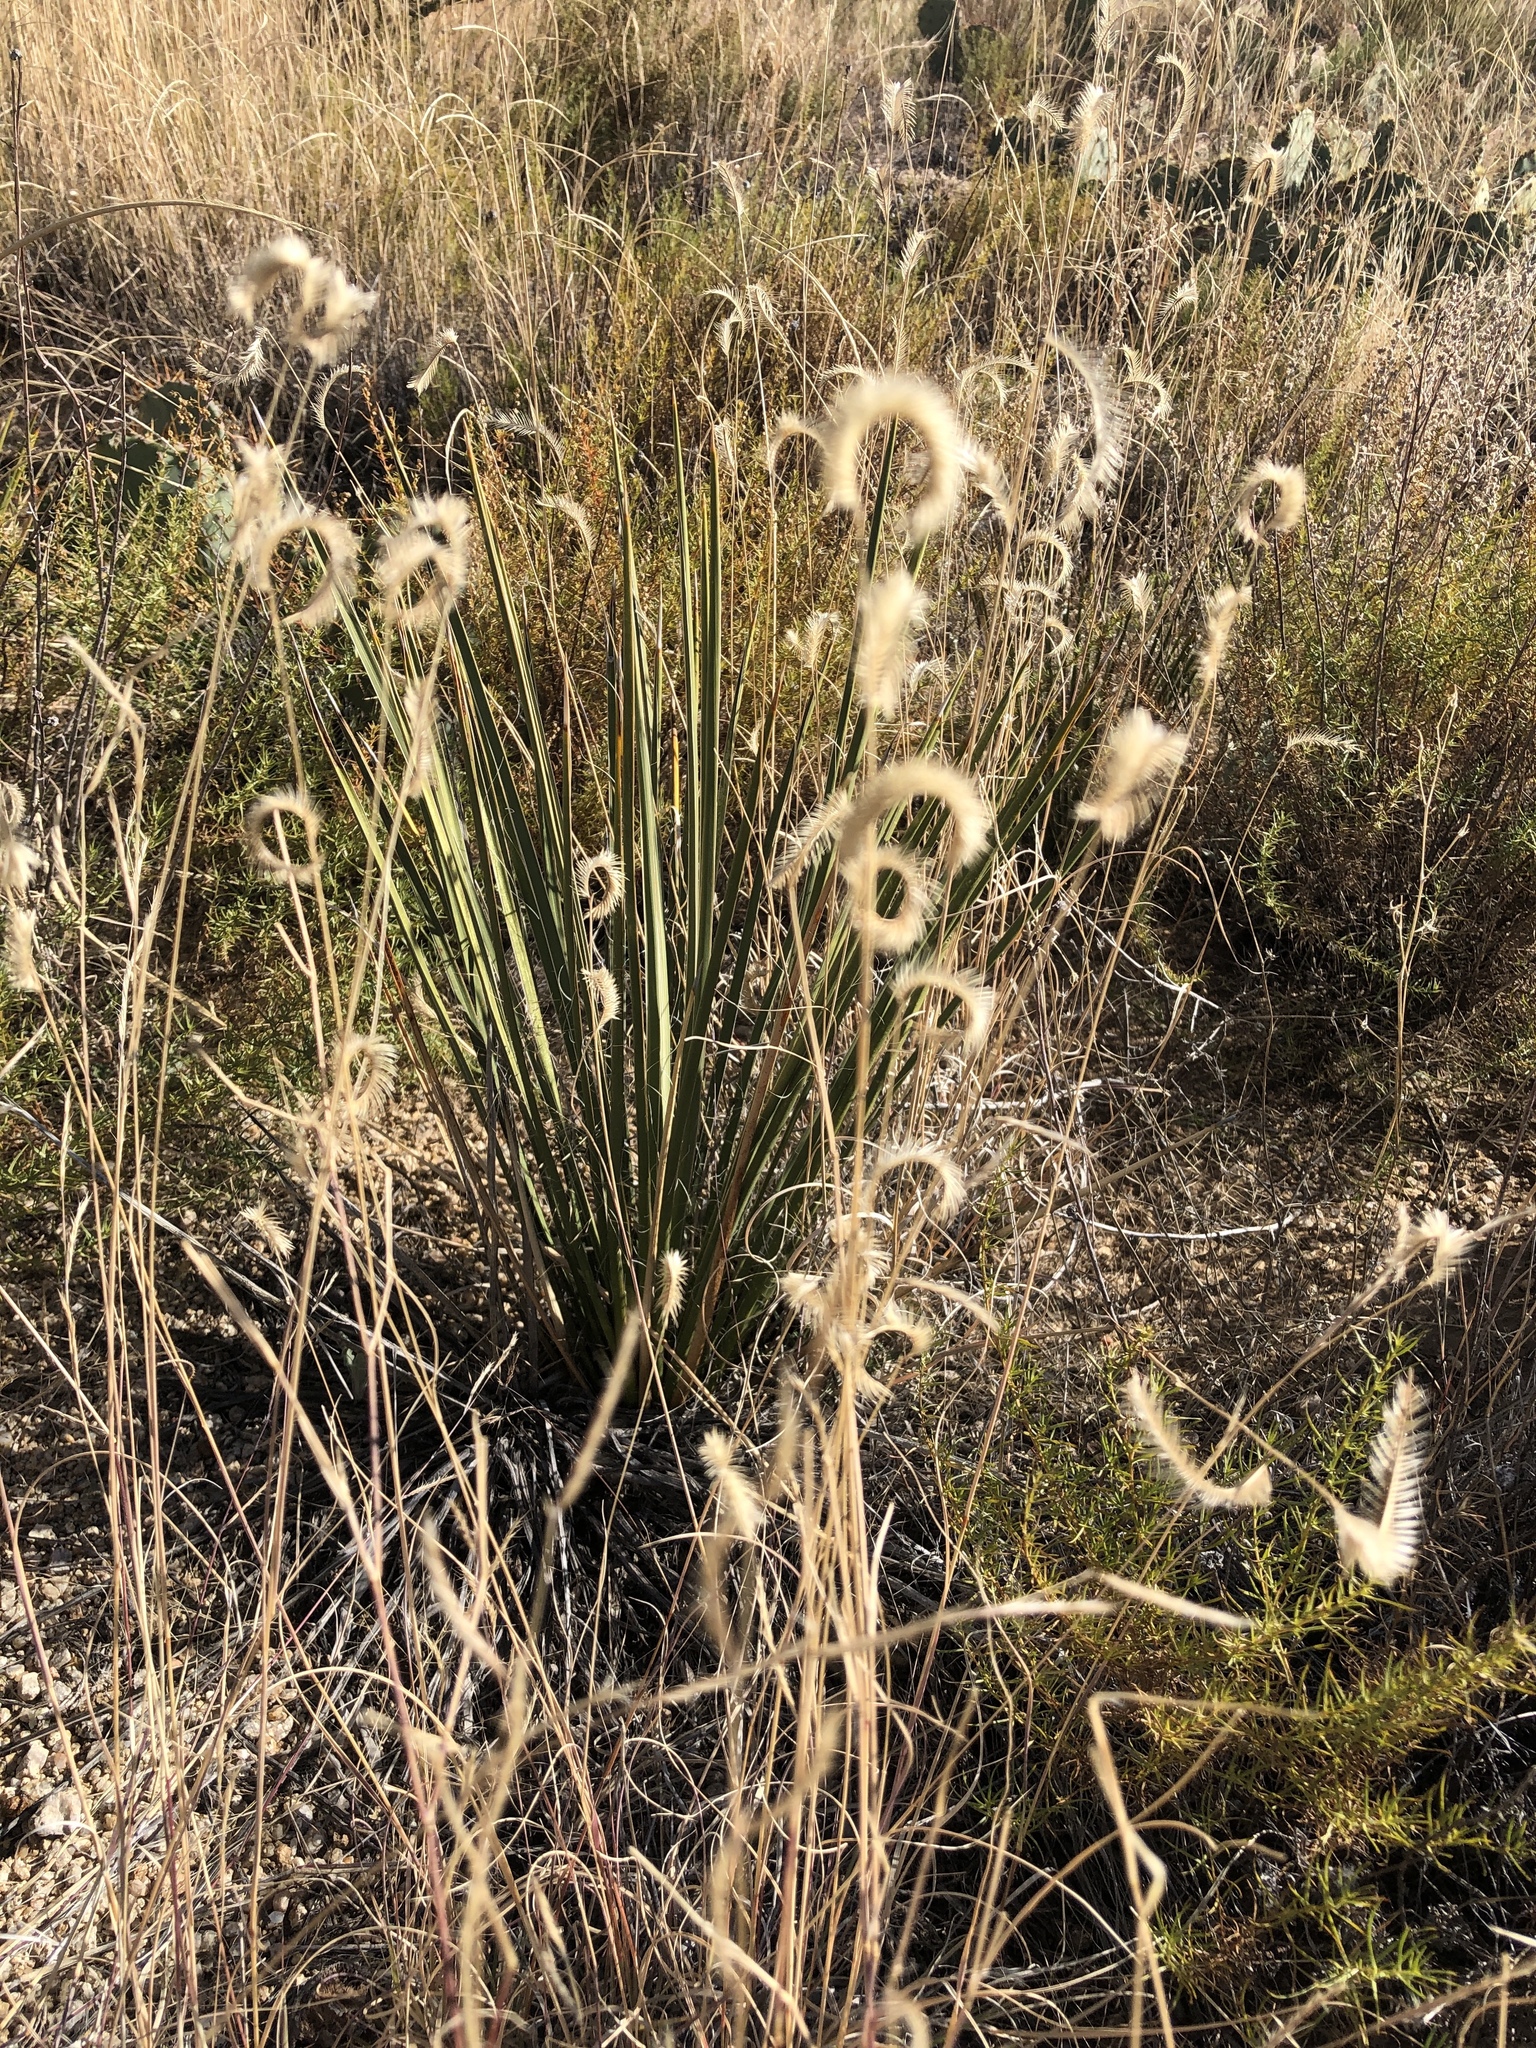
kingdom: Plantae
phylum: Tracheophyta
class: Liliopsida
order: Poales
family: Poaceae
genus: Bouteloua
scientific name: Bouteloua gracilis
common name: Blue grama
